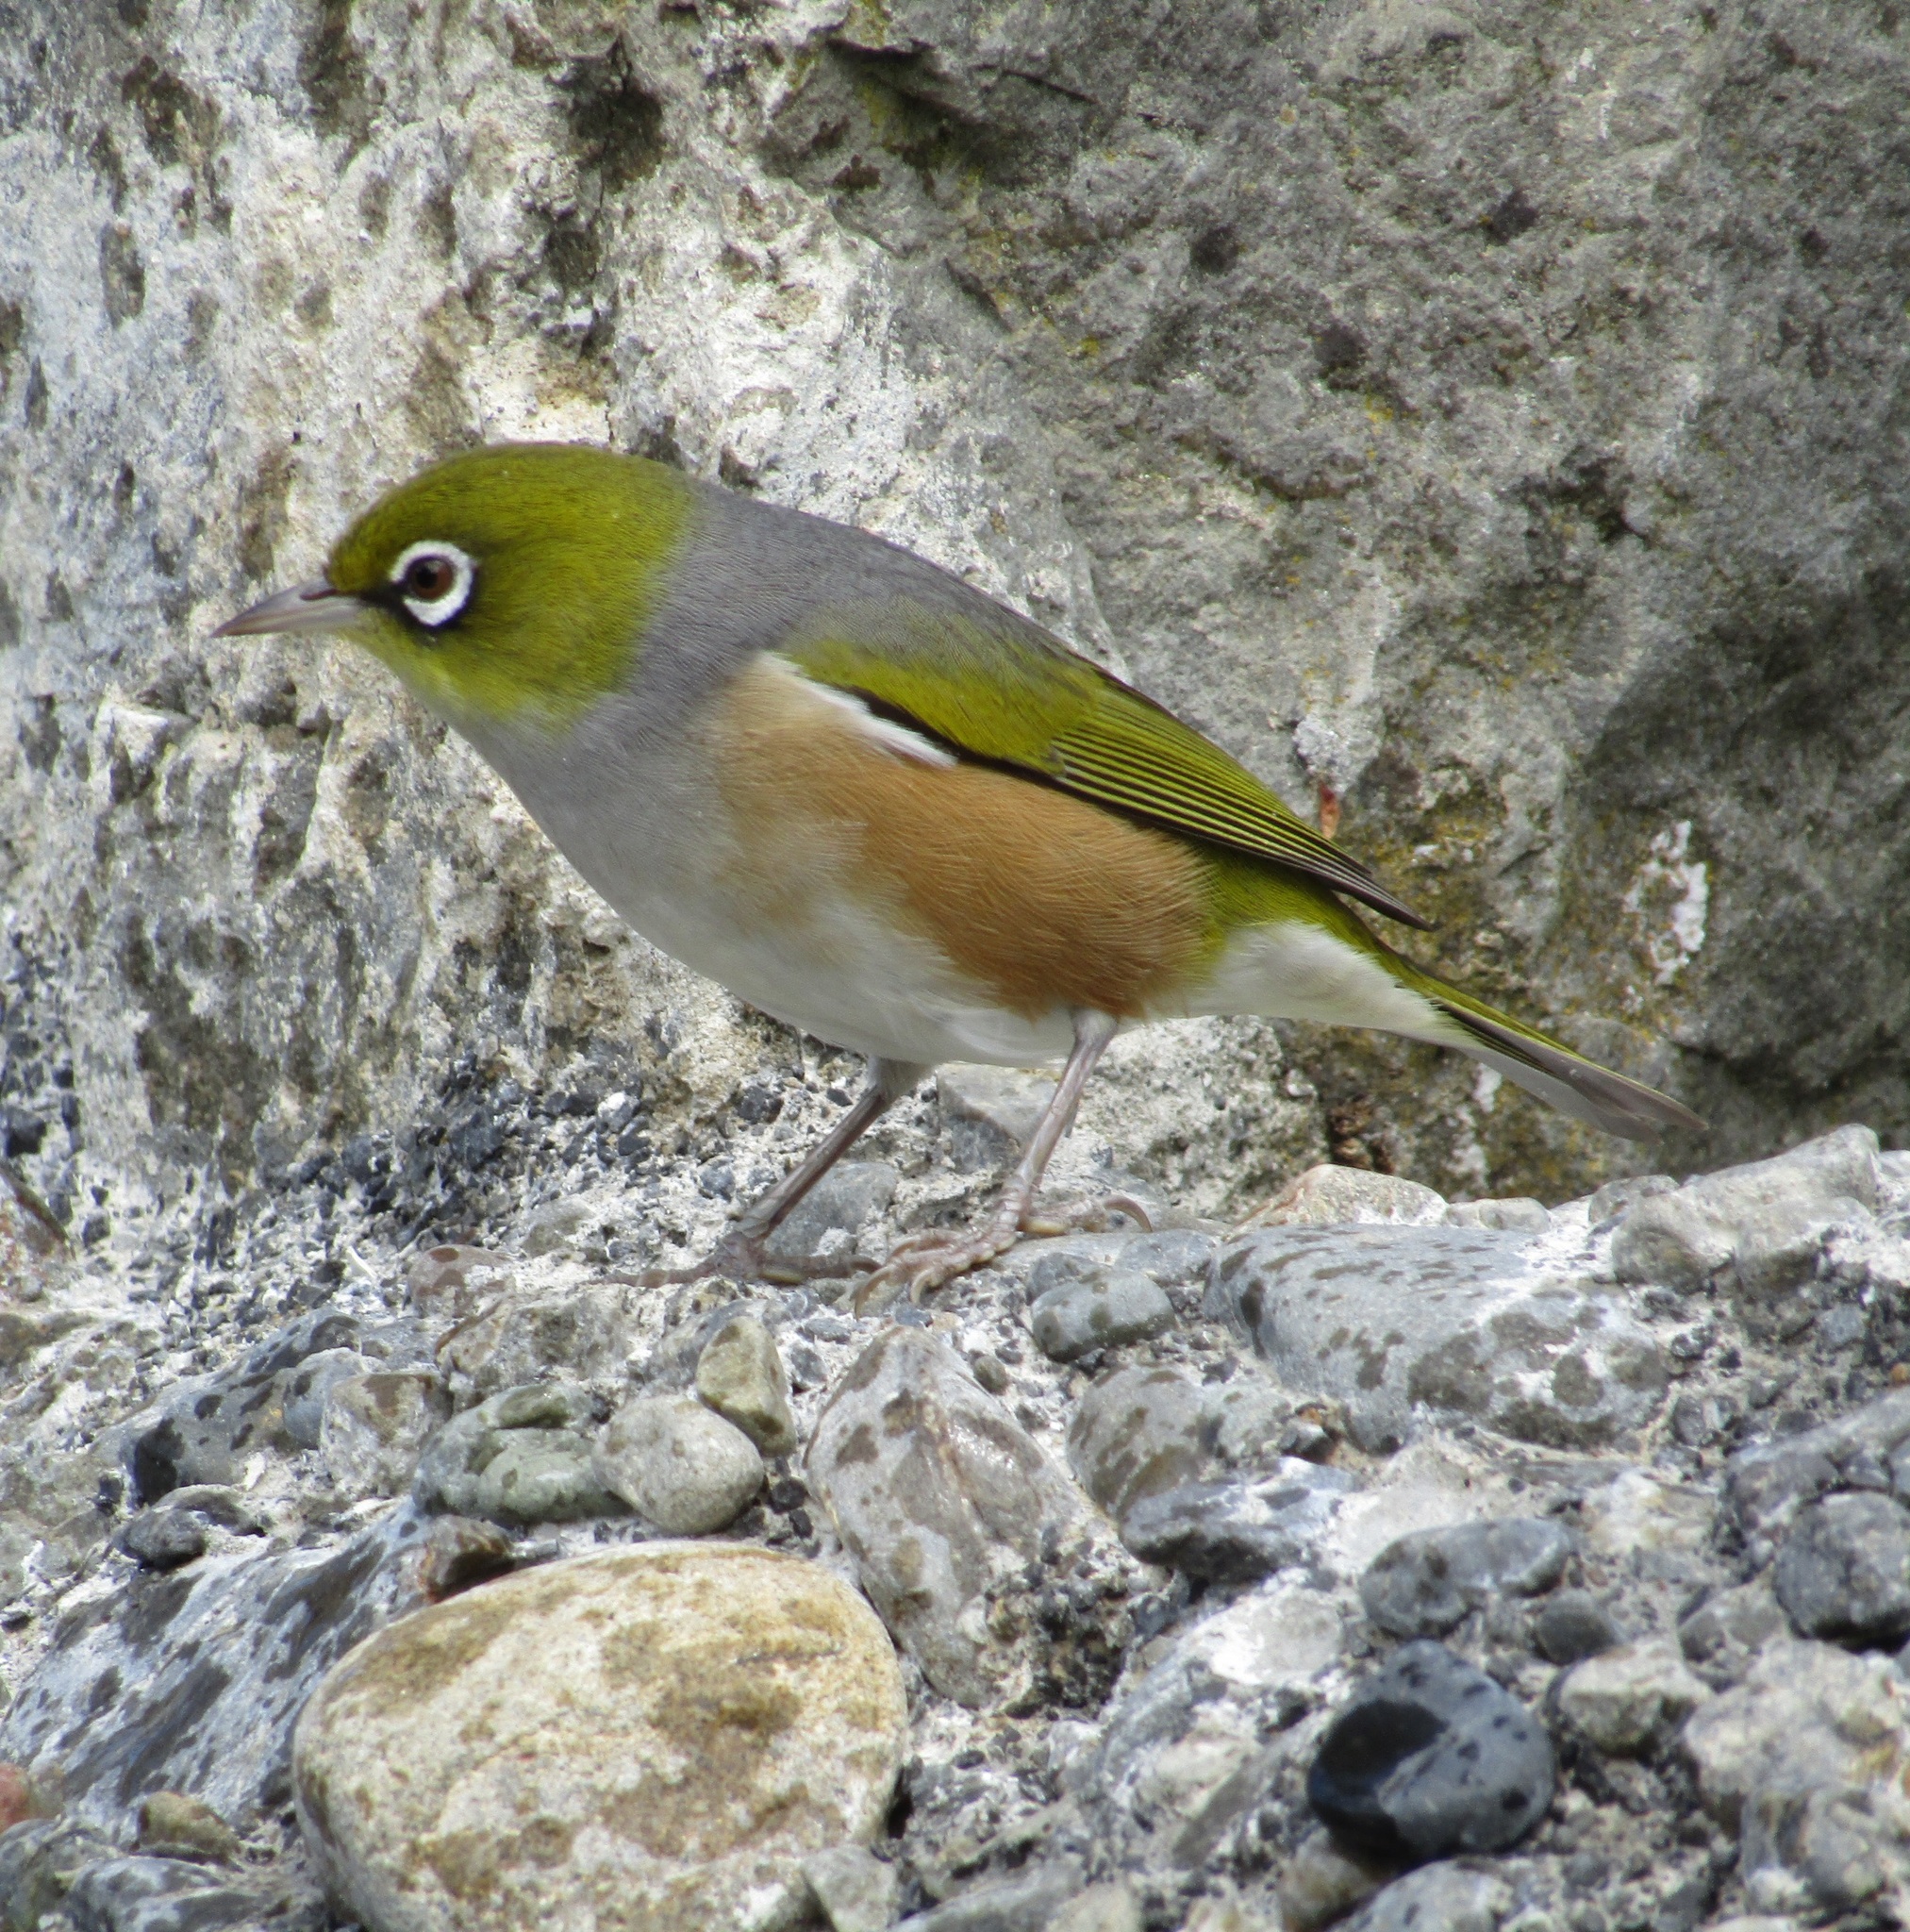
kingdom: Animalia
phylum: Chordata
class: Aves
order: Passeriformes
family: Zosteropidae
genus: Zosterops
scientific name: Zosterops lateralis
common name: Silvereye
